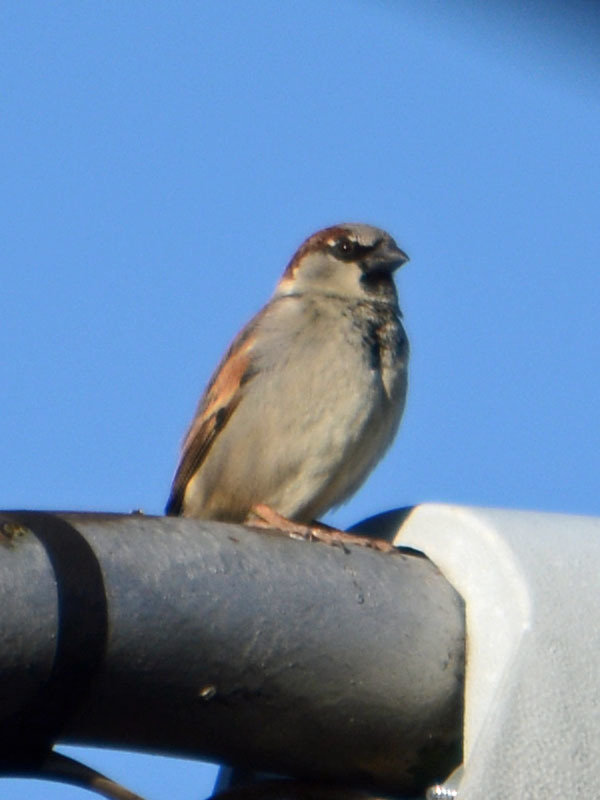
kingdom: Animalia
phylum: Chordata
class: Aves
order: Passeriformes
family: Passeridae
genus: Passer
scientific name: Passer domesticus
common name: House sparrow
